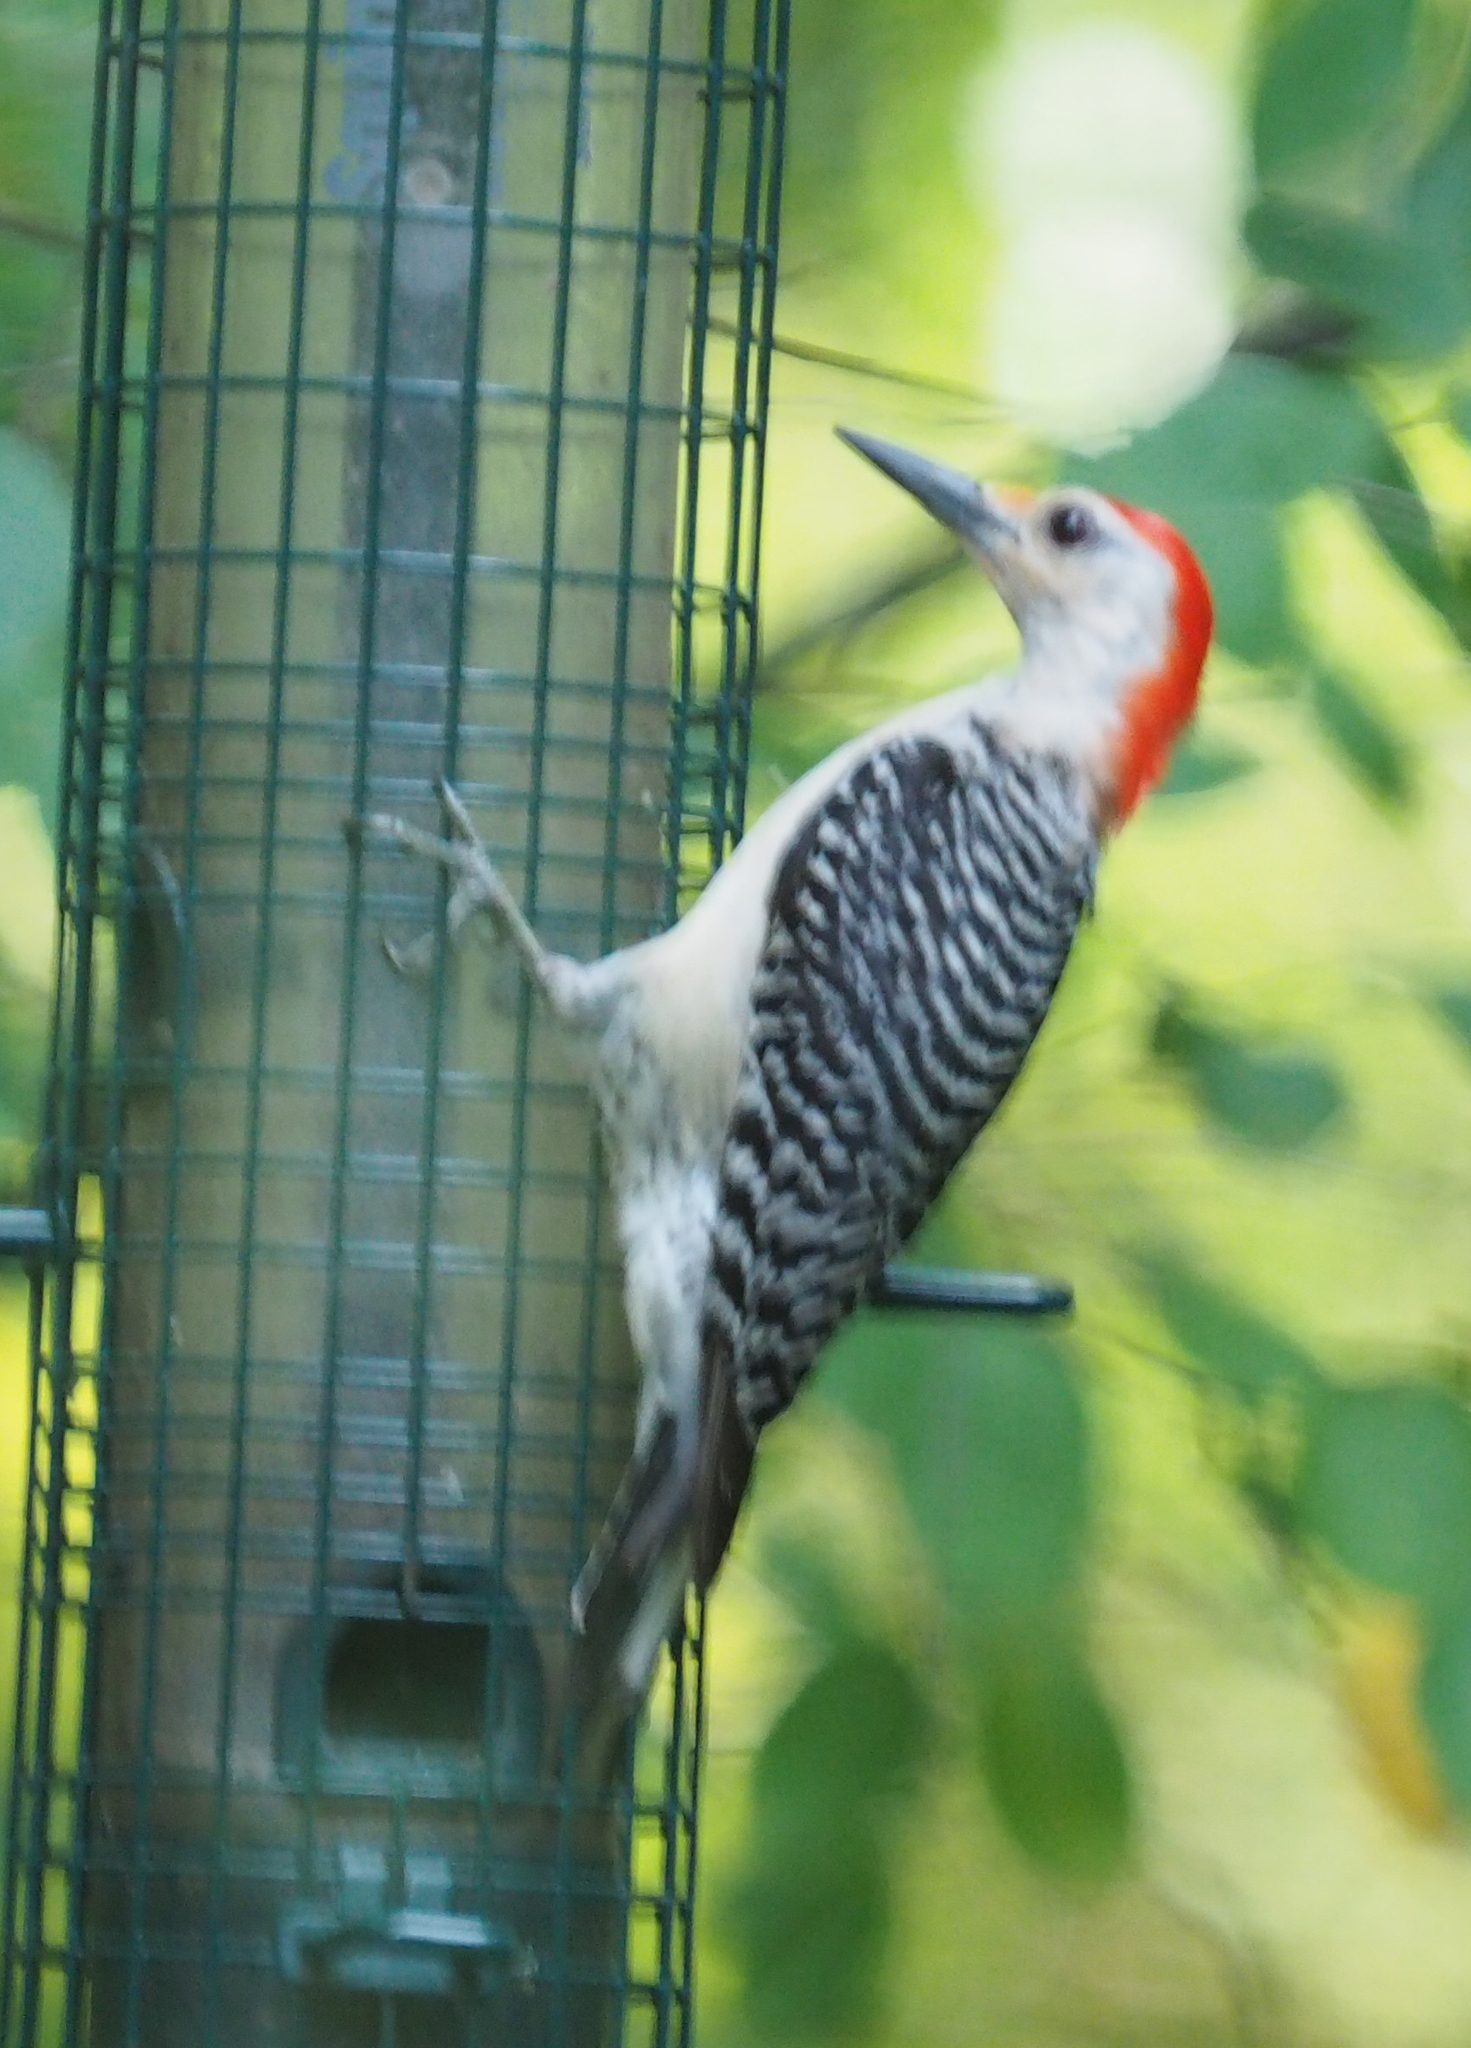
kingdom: Animalia
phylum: Chordata
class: Aves
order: Piciformes
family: Picidae
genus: Melanerpes
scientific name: Melanerpes carolinus
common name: Red-bellied woodpecker
